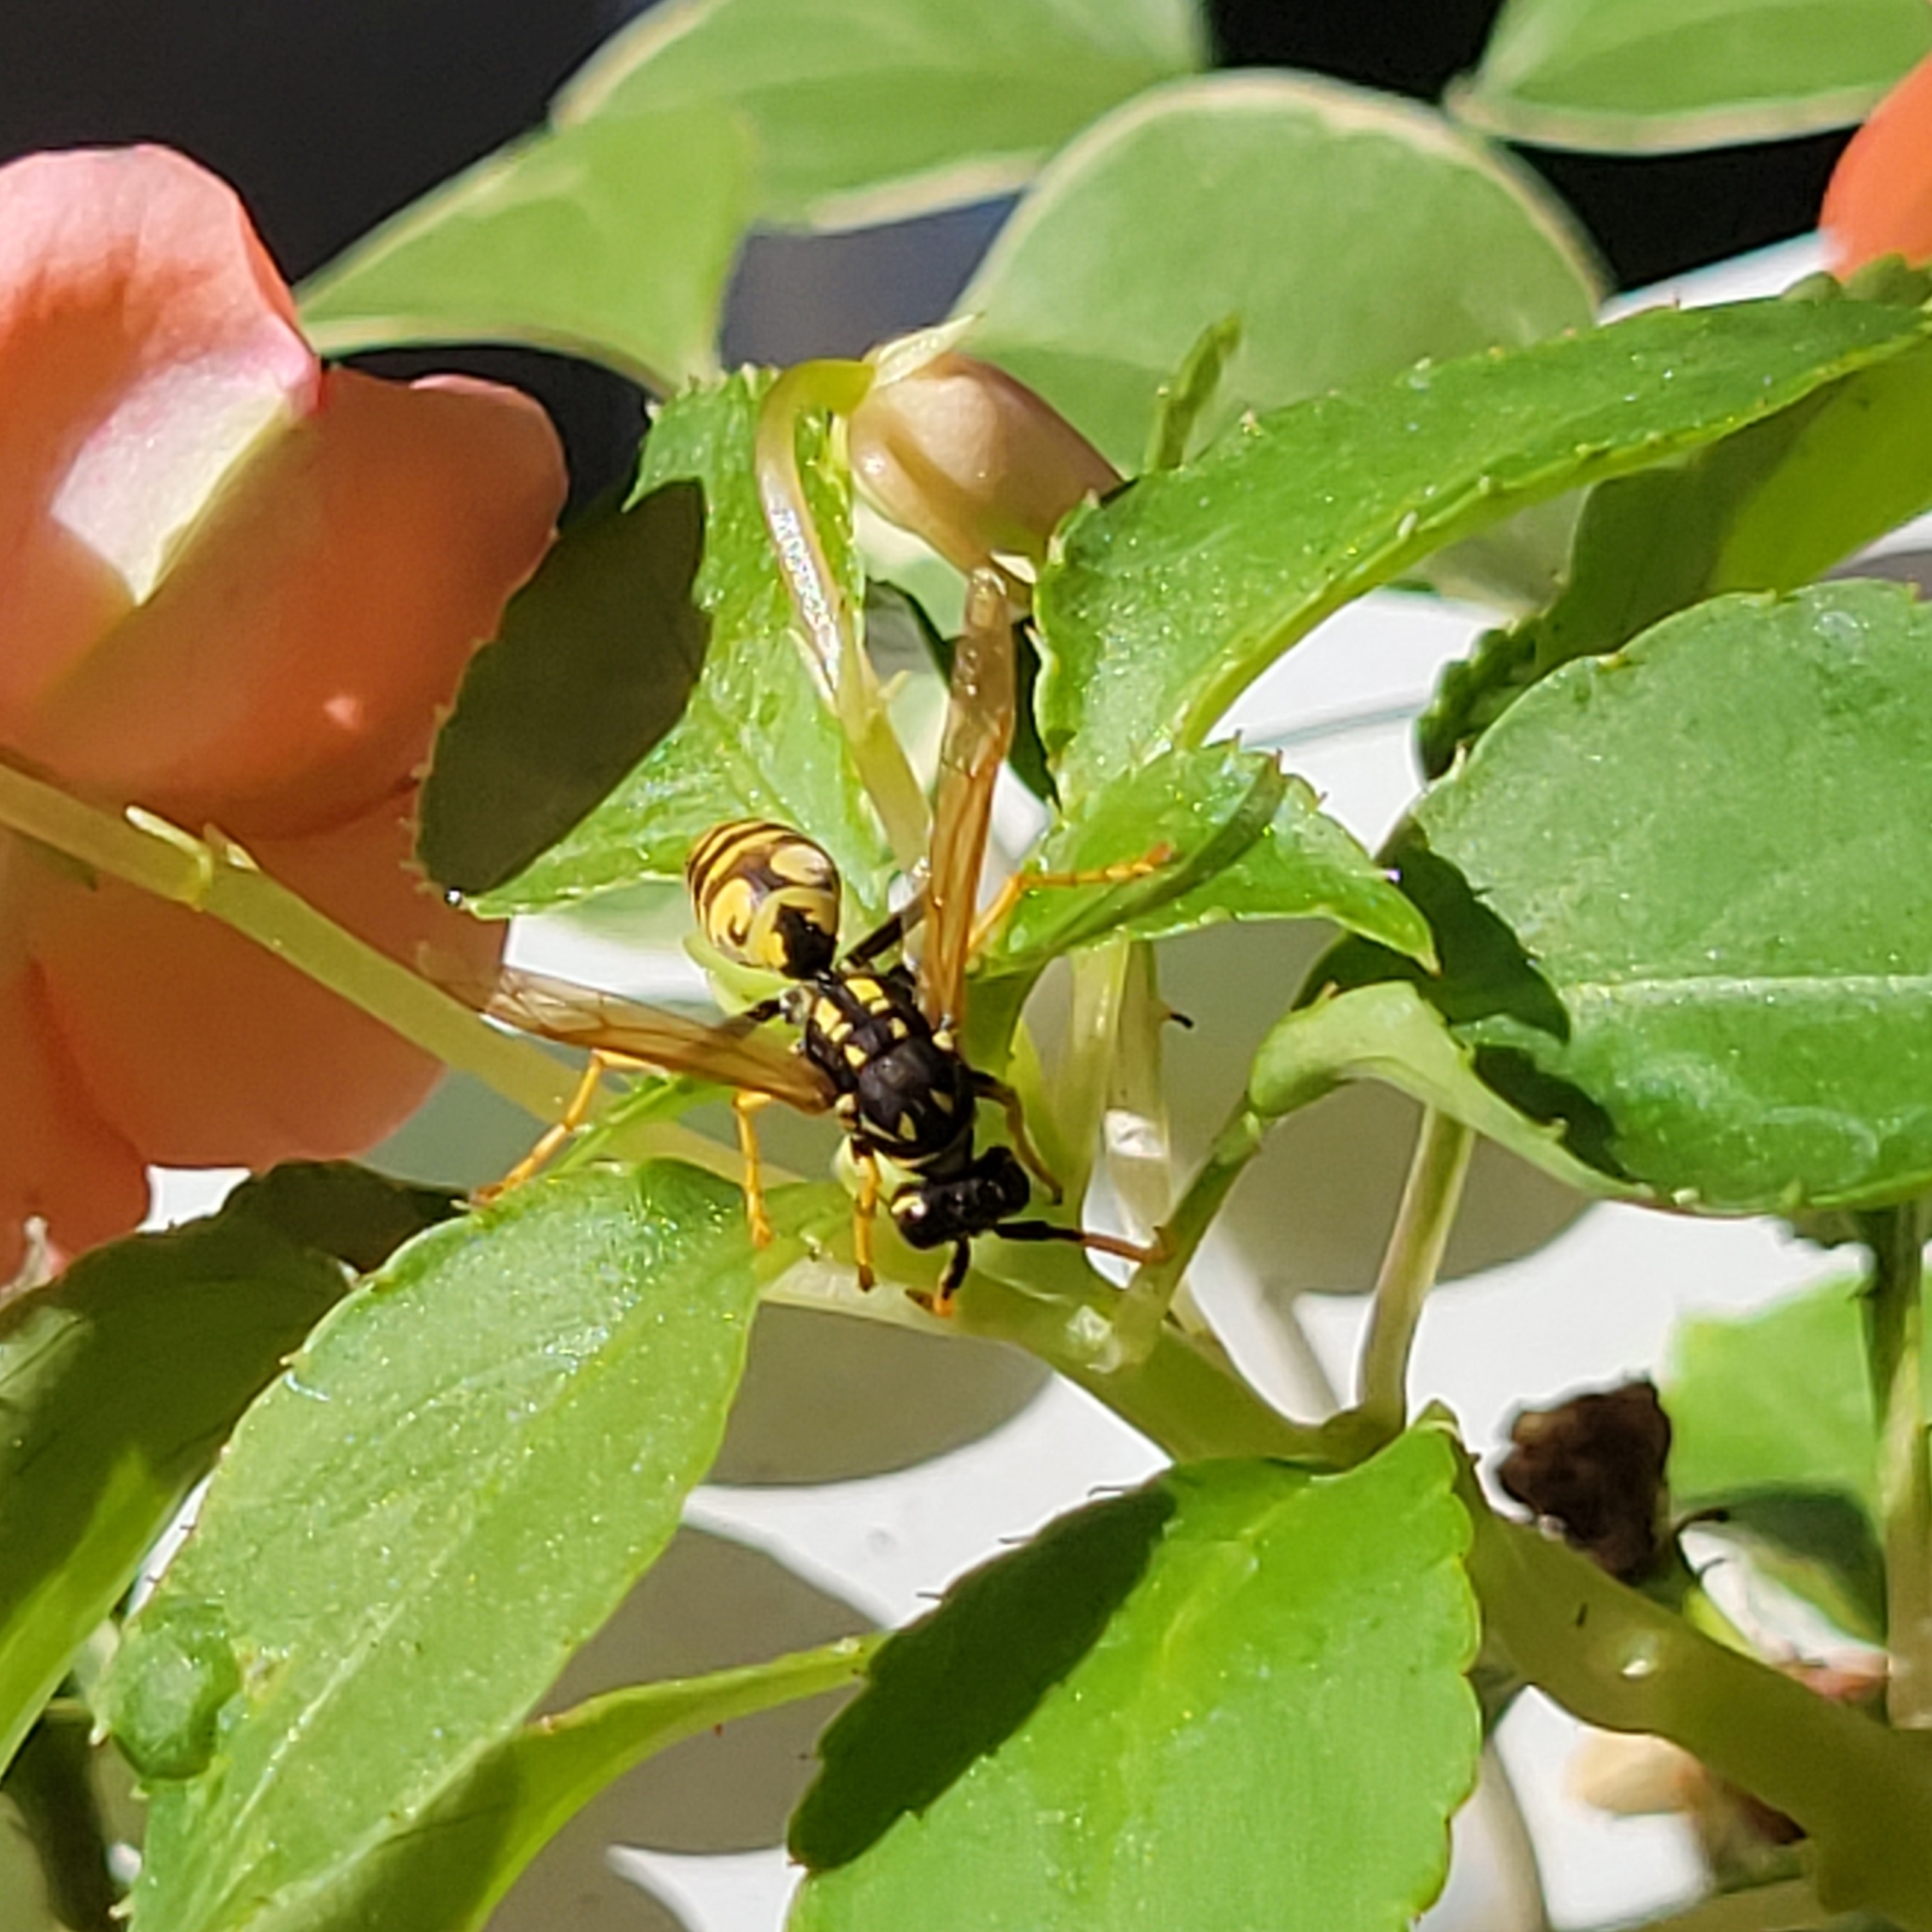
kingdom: Animalia
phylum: Arthropoda
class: Insecta
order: Hymenoptera
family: Eumenidae
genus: Polistes
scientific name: Polistes dominula
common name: Paper wasp
